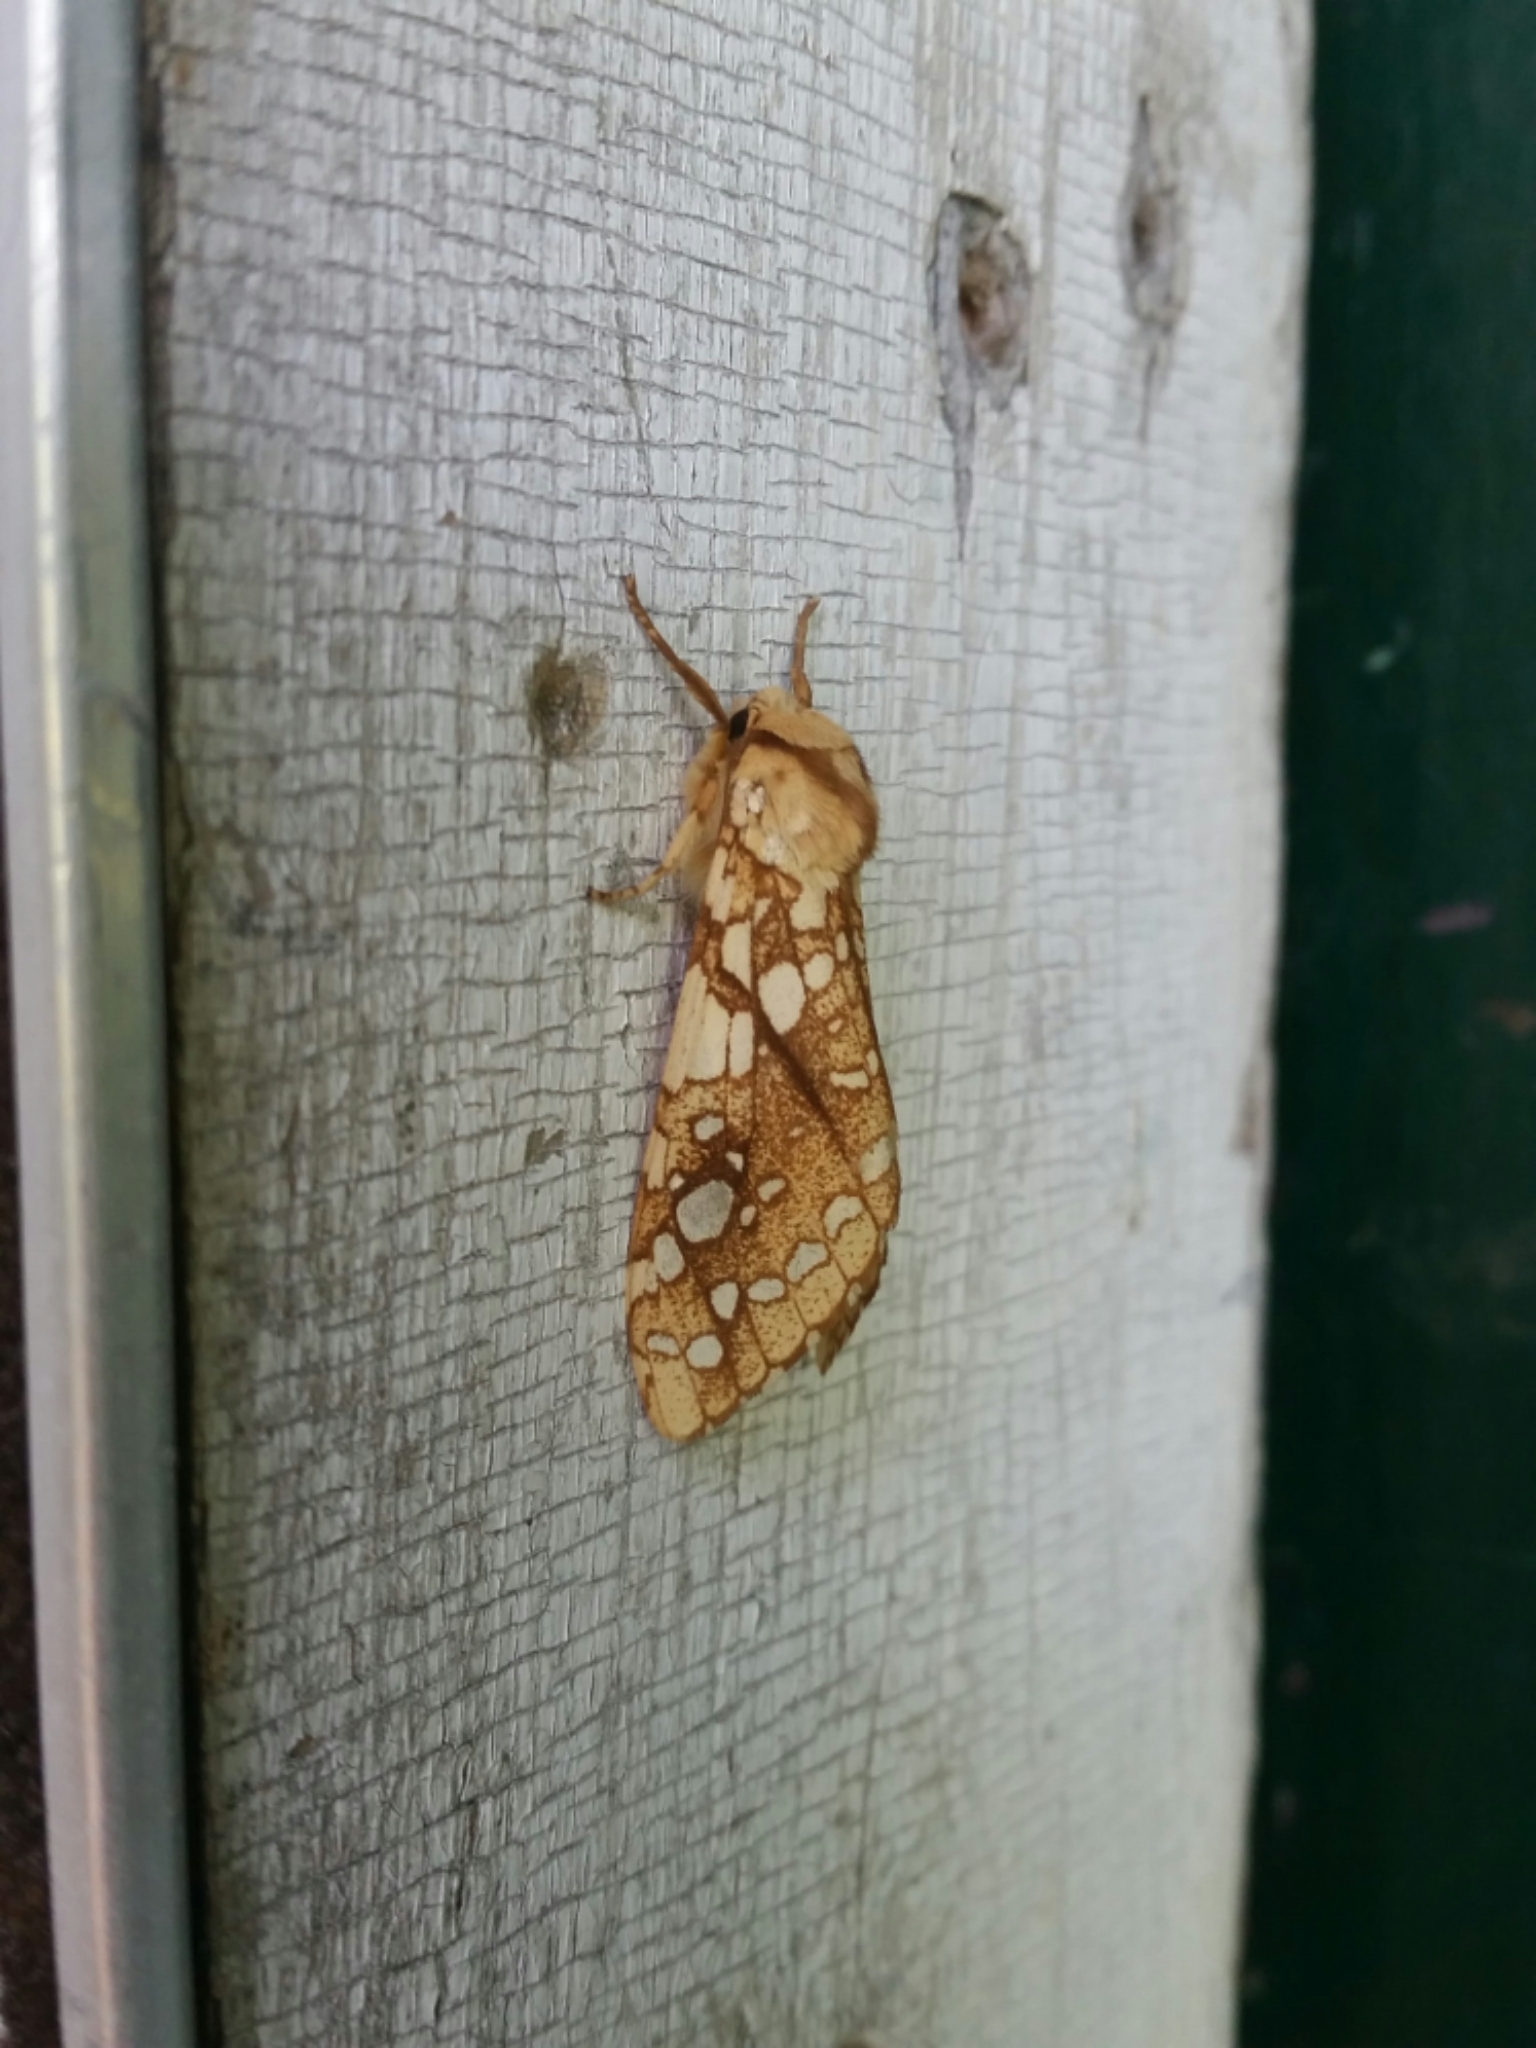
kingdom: Animalia
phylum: Arthropoda
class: Insecta
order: Lepidoptera
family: Erebidae
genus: Lophocampa
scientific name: Lophocampa caryae
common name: Hickory tussock moth
